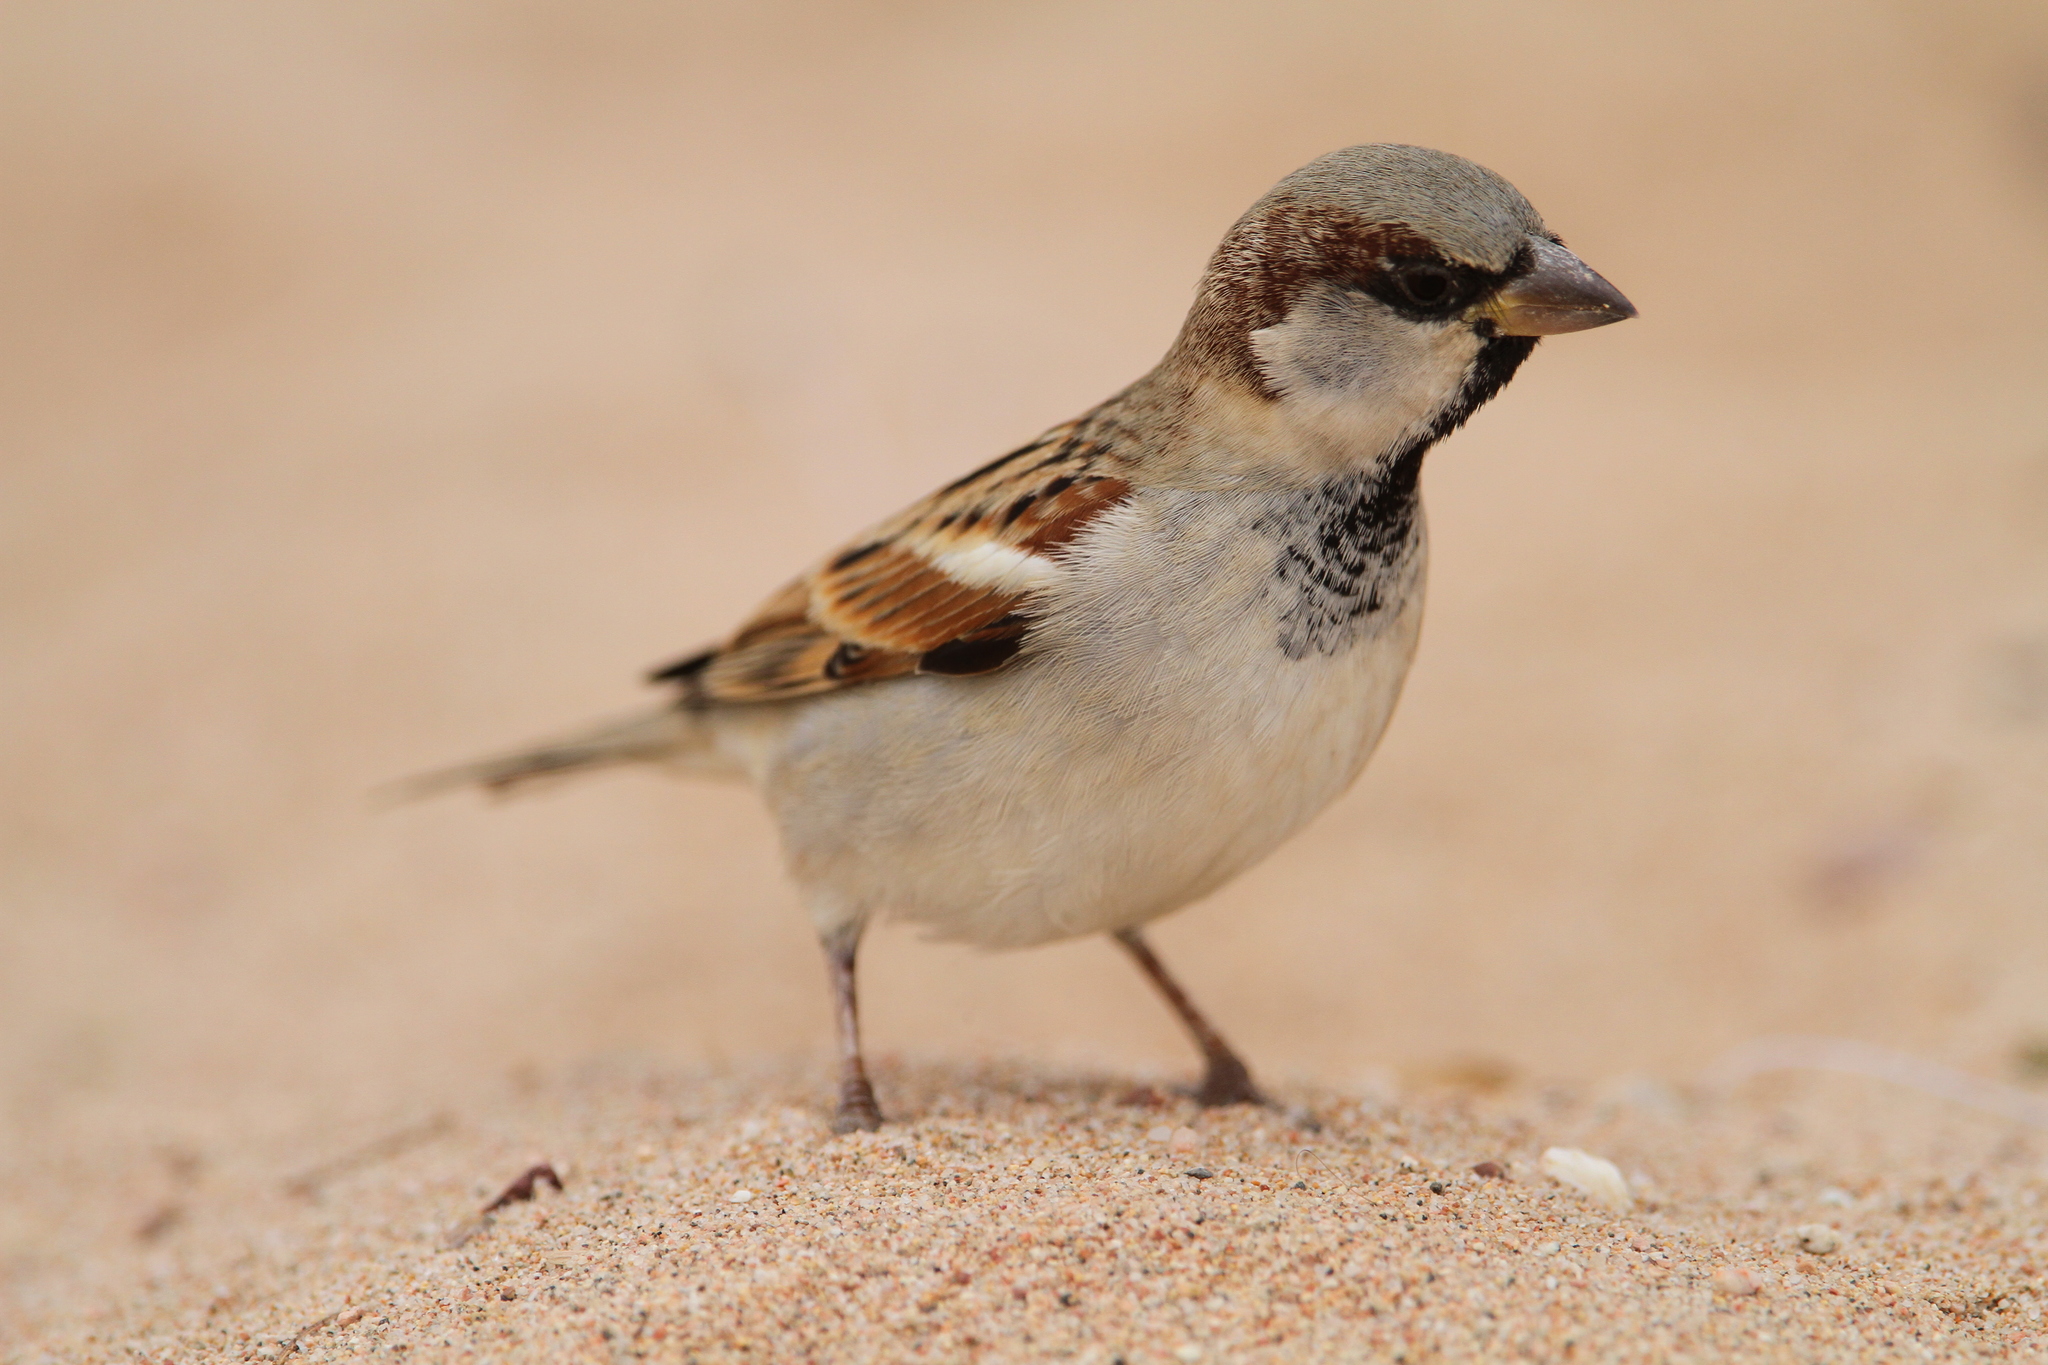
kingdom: Animalia
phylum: Chordata
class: Aves
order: Passeriformes
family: Passeridae
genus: Passer
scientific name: Passer domesticus
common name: House sparrow
